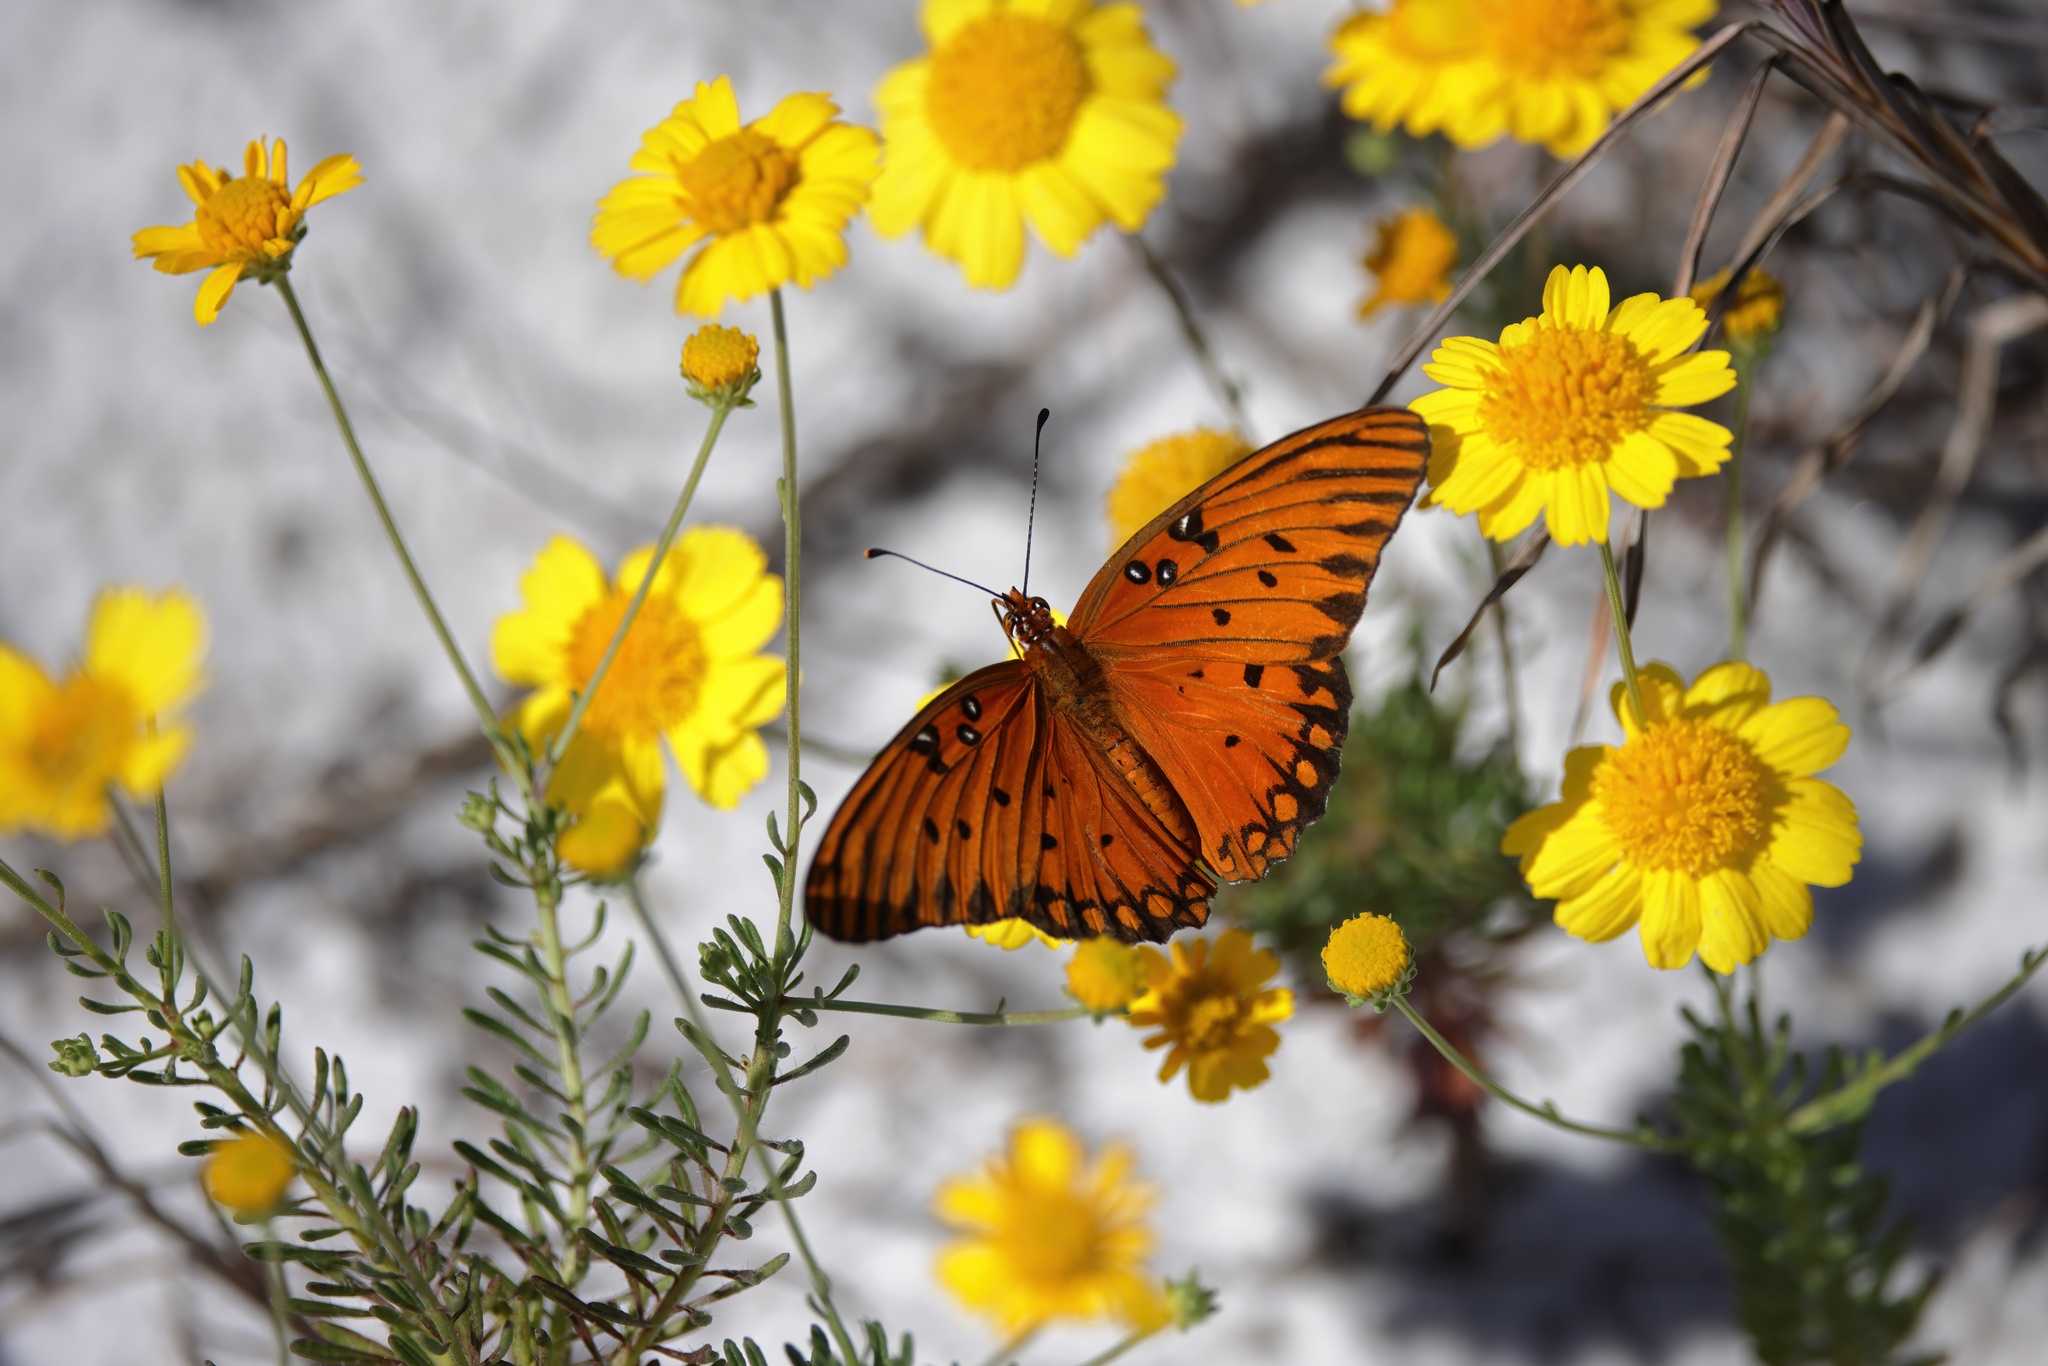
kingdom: Animalia
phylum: Arthropoda
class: Insecta
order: Lepidoptera
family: Nymphalidae
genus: Dione
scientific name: Dione vanillae
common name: Gulf fritillary
